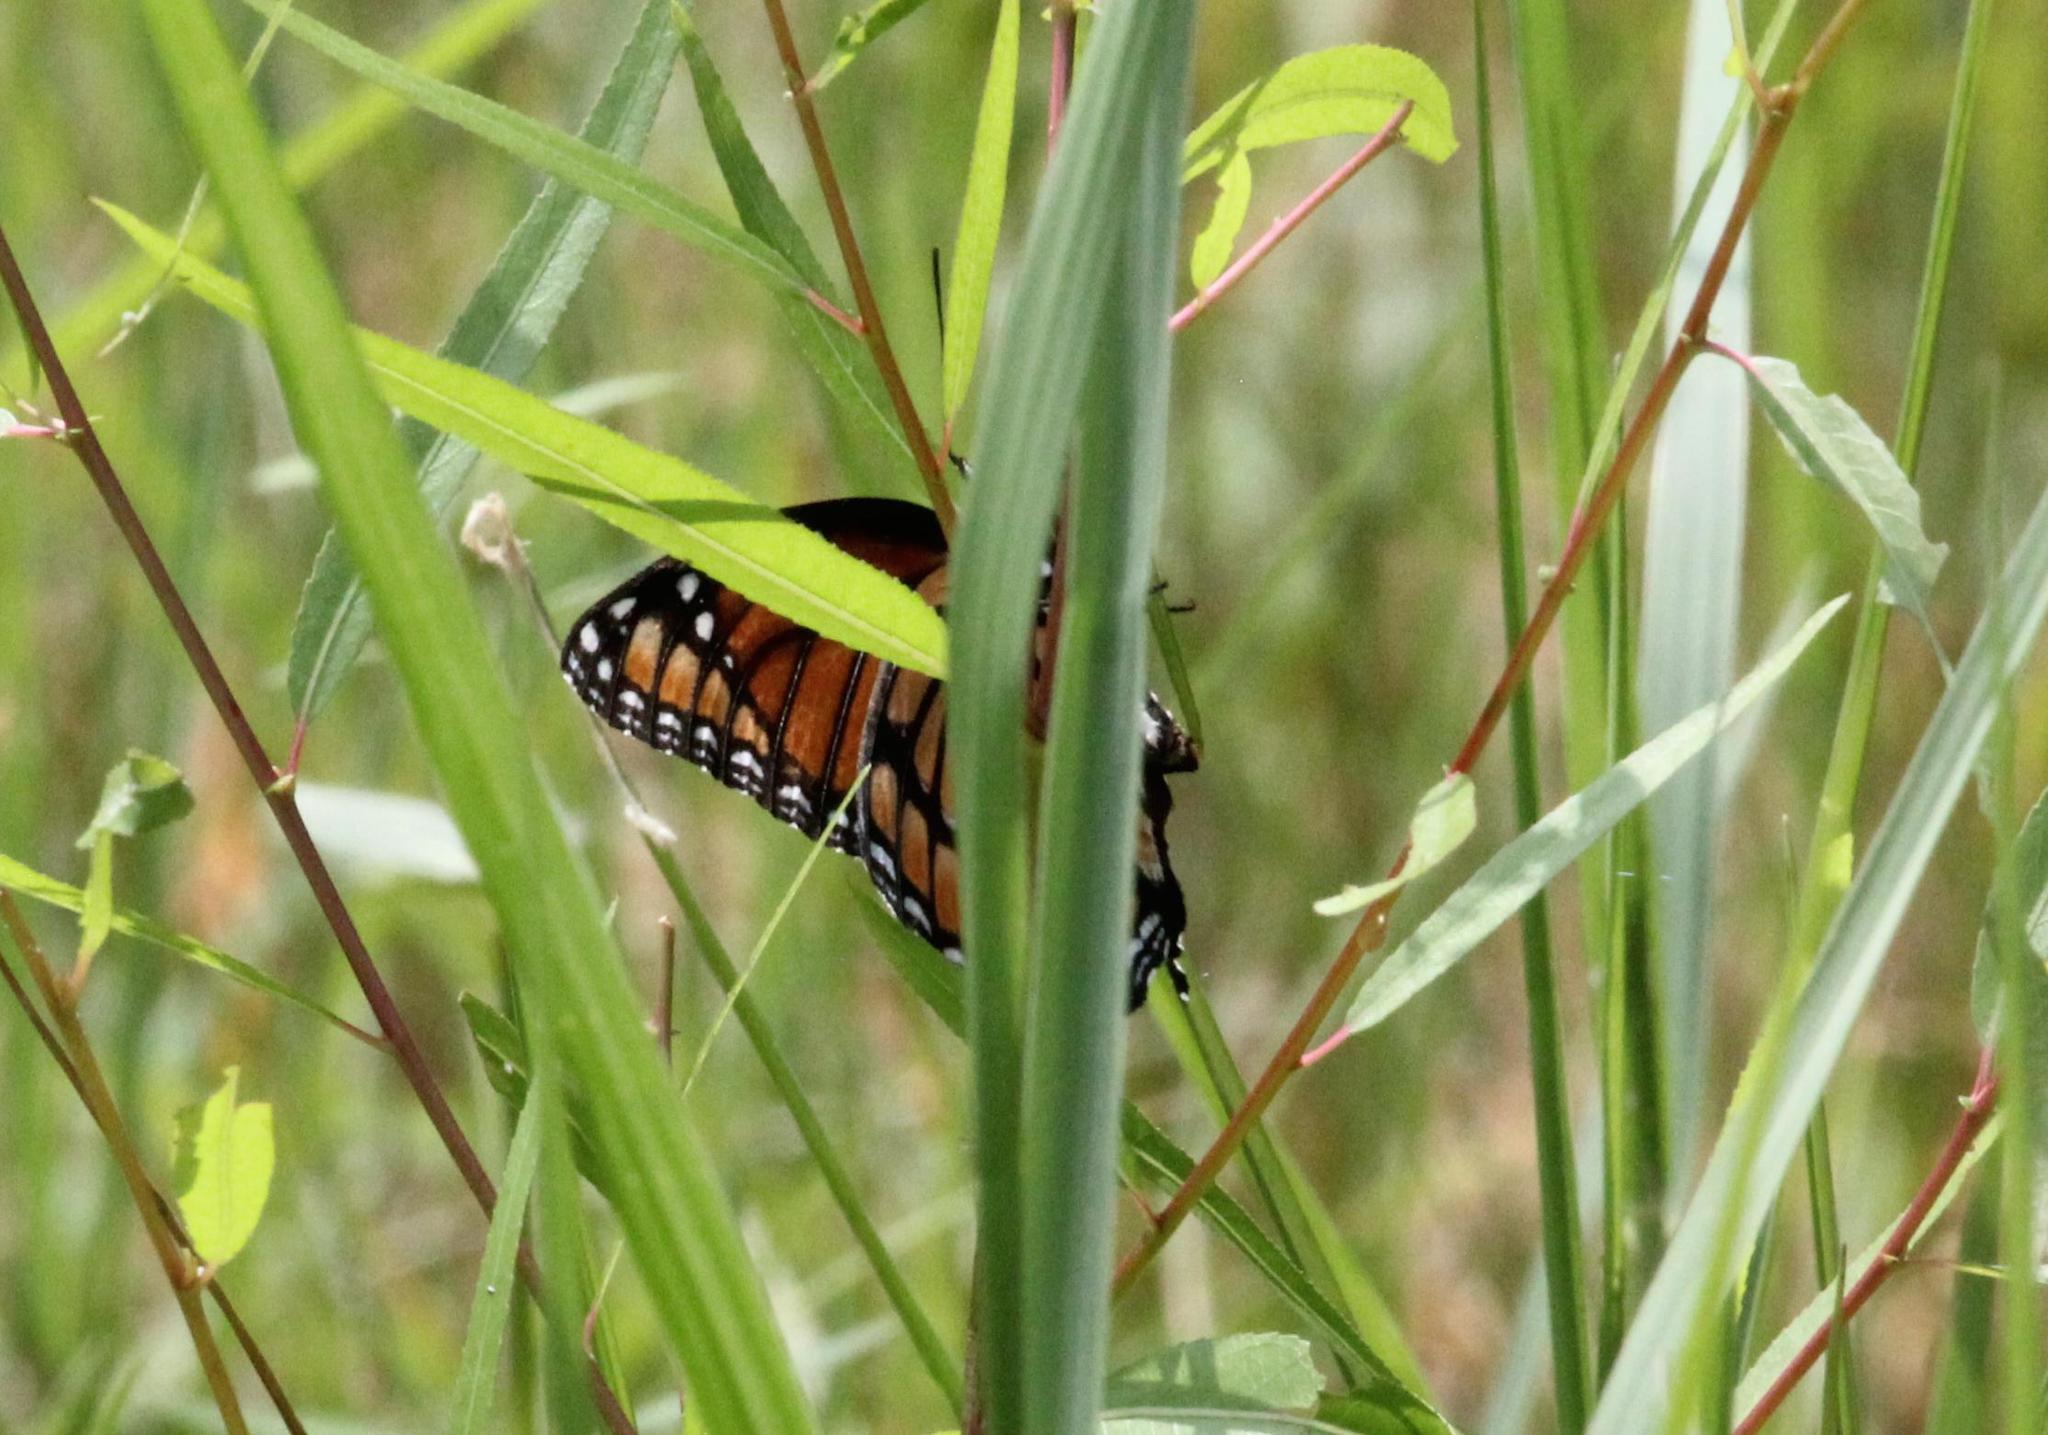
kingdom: Animalia
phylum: Arthropoda
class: Insecta
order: Lepidoptera
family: Nymphalidae
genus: Limenitis
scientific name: Limenitis archippus
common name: Viceroy
